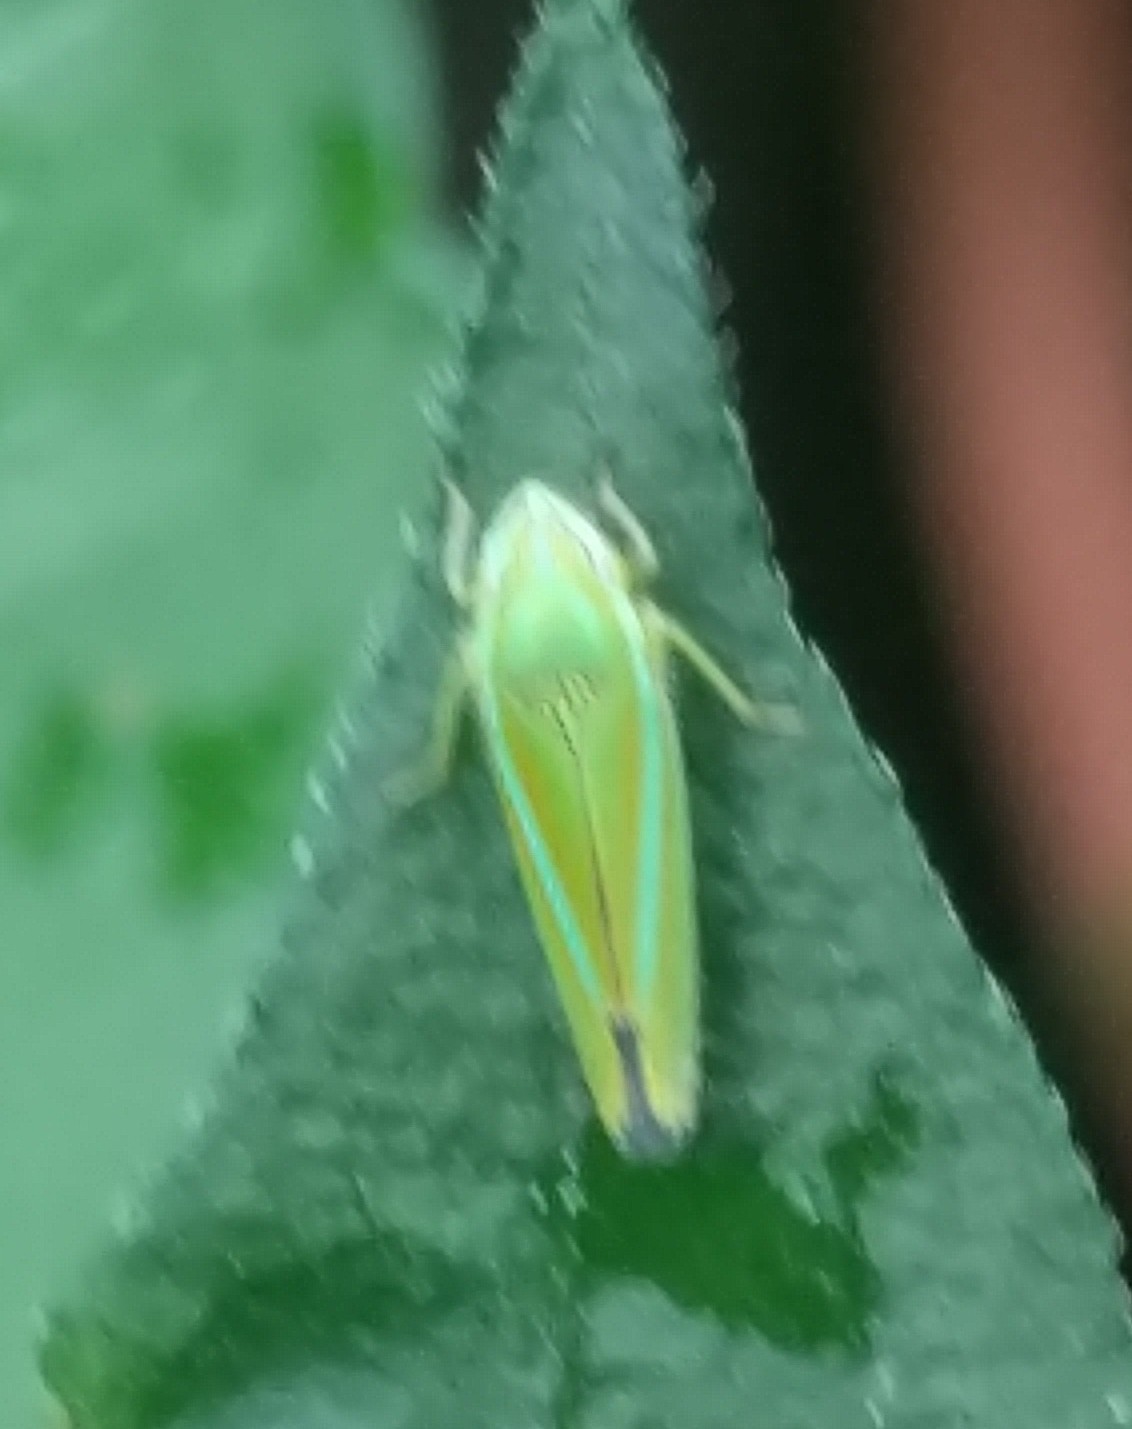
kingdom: Animalia
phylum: Arthropoda
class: Insecta
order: Hemiptera
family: Cicadellidae
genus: Graphocephala
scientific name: Graphocephala versuta
